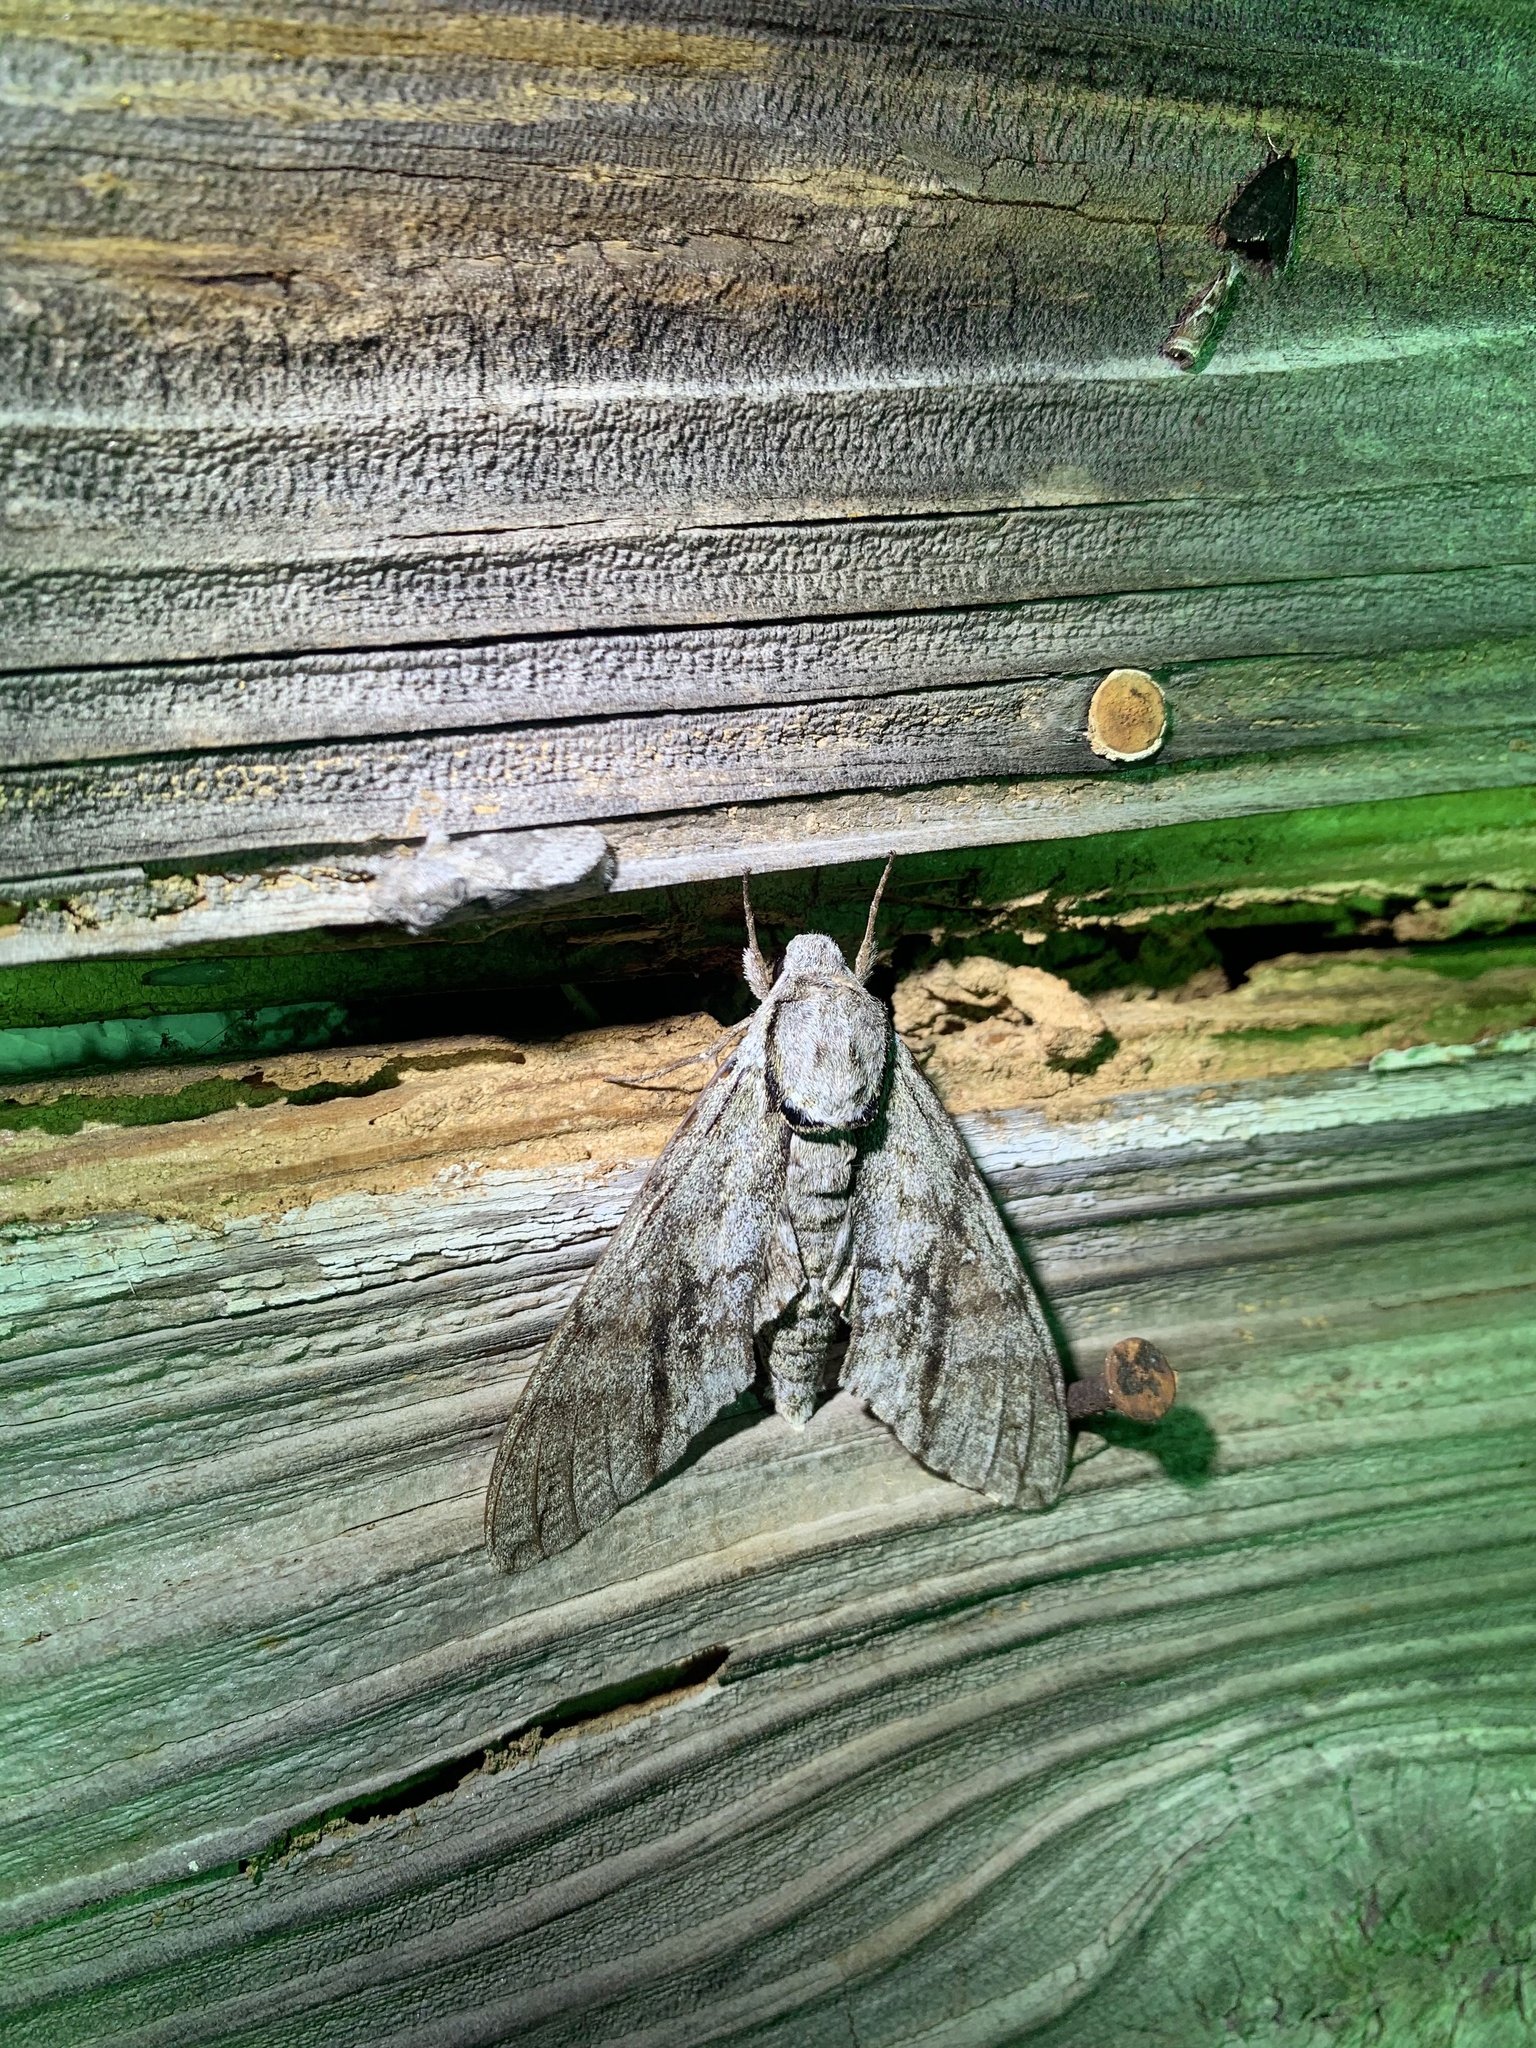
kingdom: Animalia
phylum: Arthropoda
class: Insecta
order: Lepidoptera
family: Sphingidae
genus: Manduca
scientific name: Manduca jasminearum
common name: Ash sphinx
